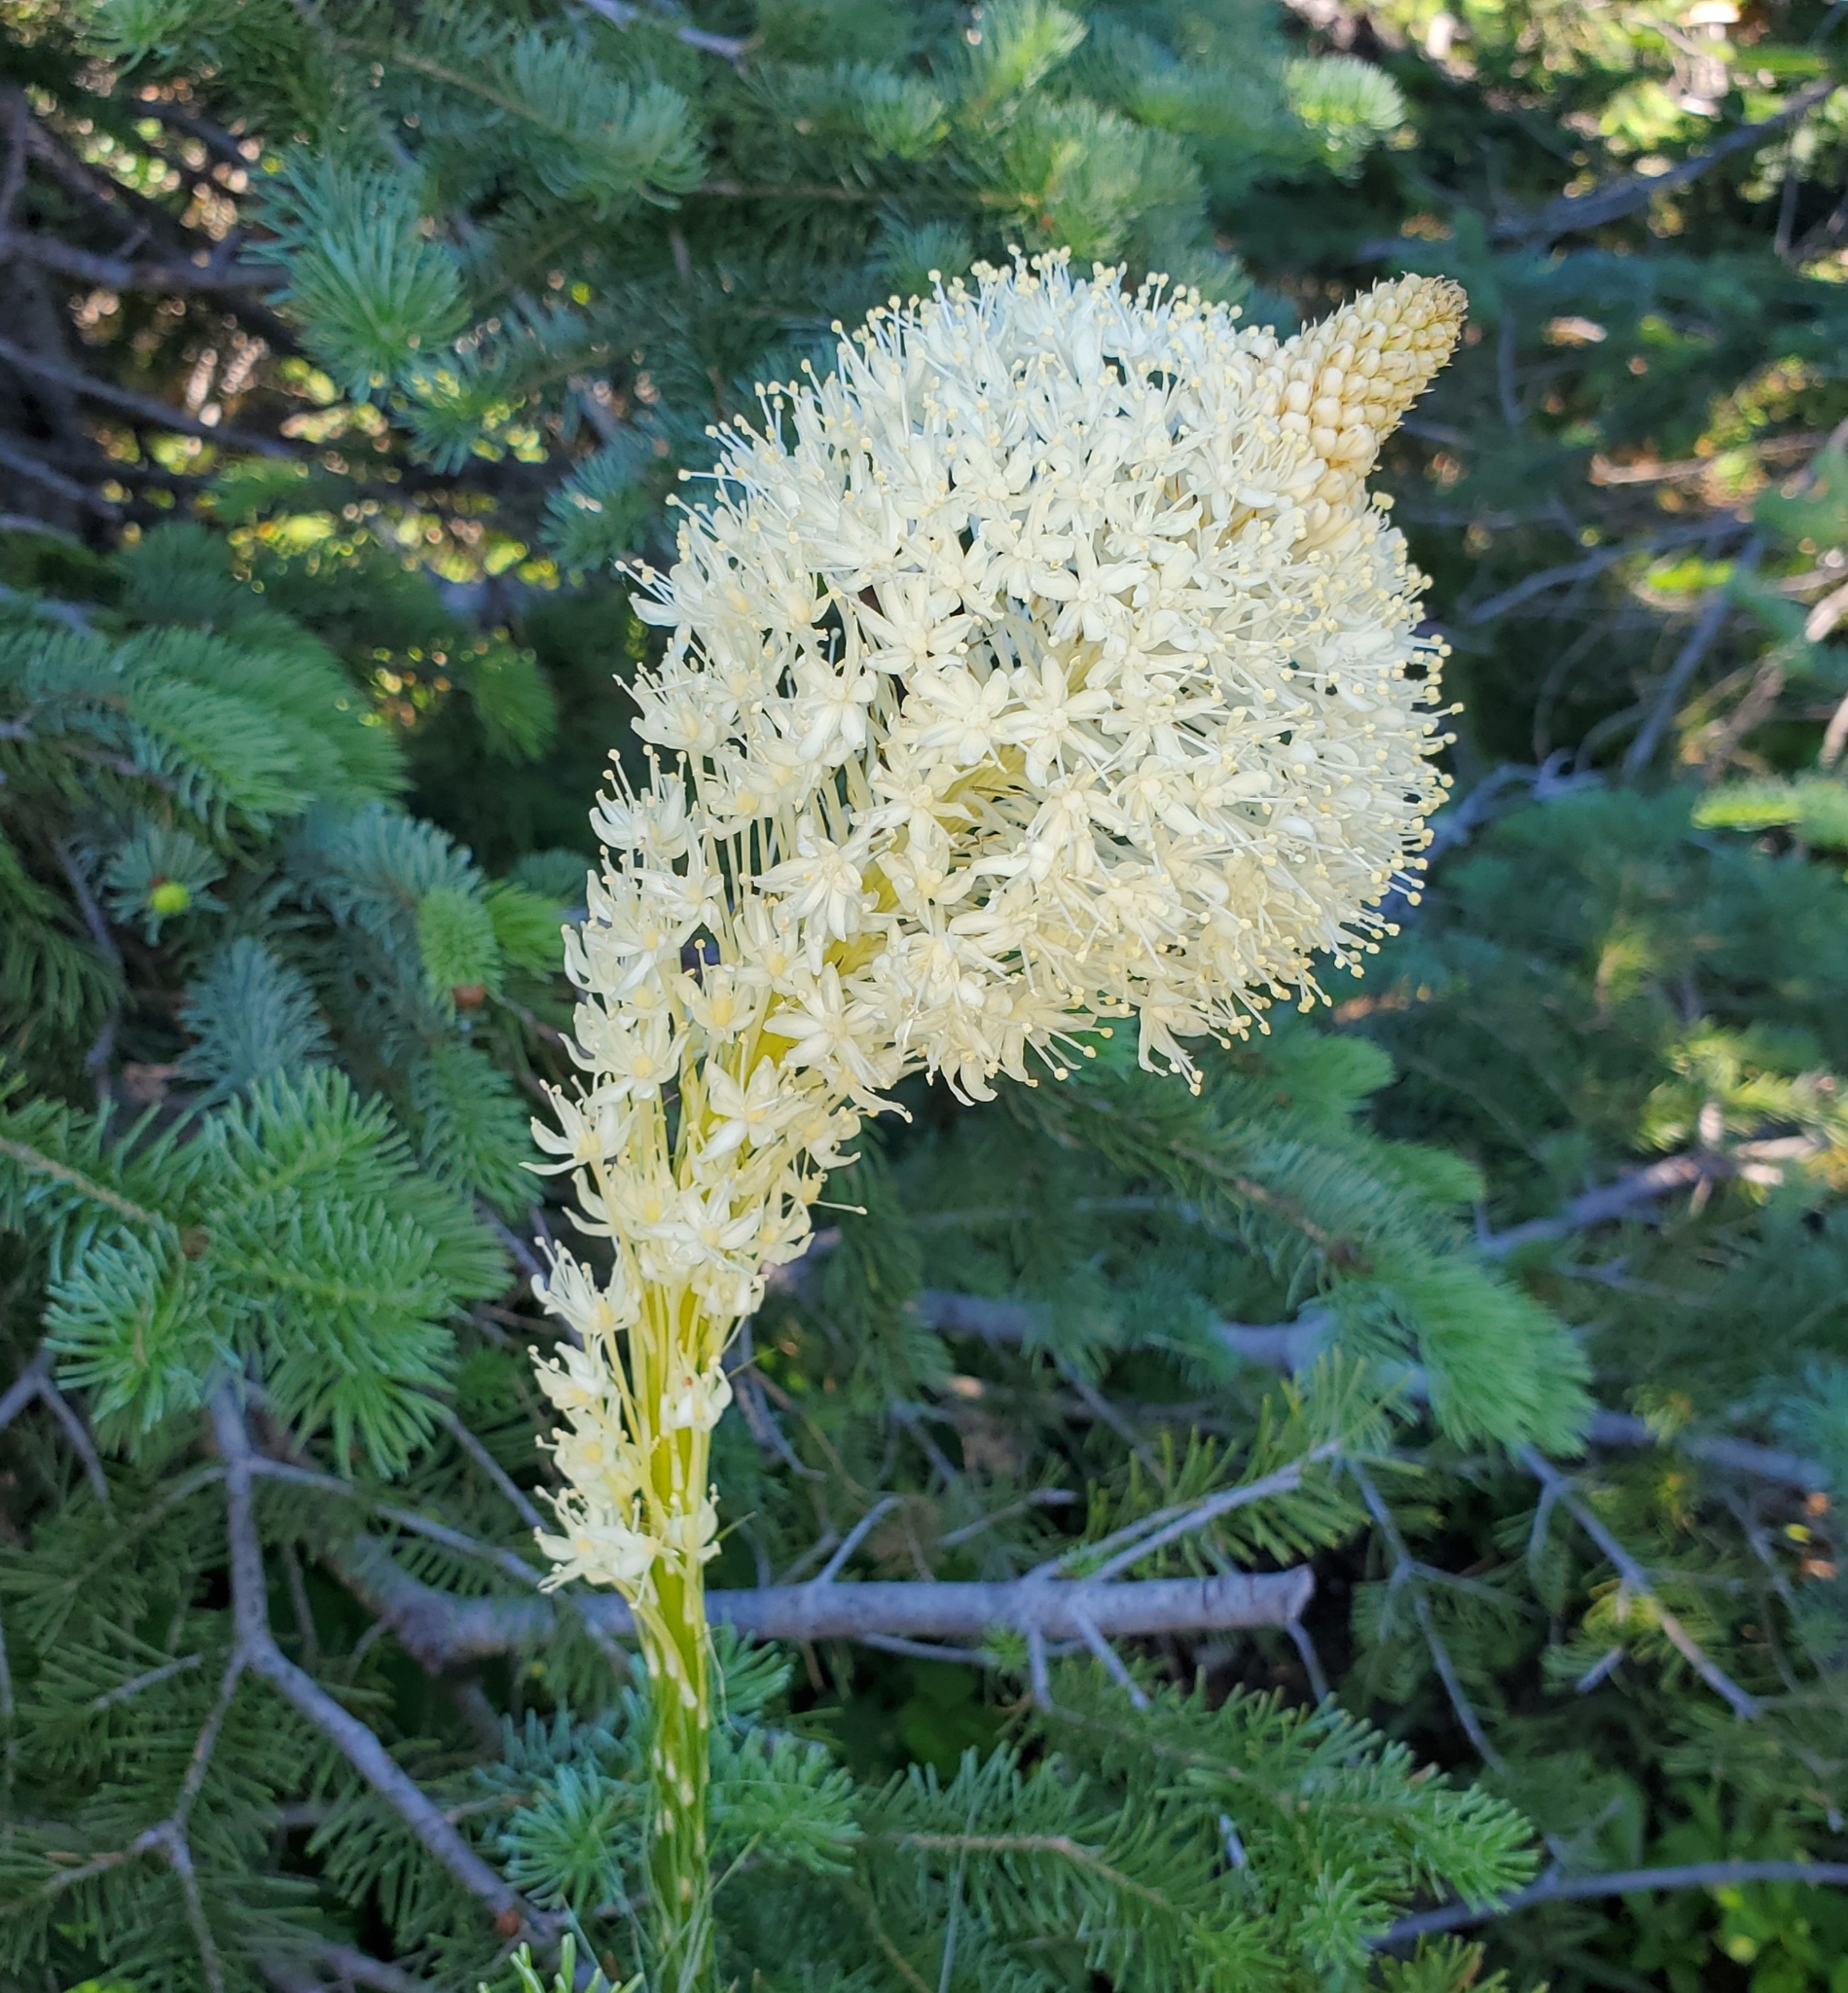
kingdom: Plantae
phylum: Tracheophyta
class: Liliopsida
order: Liliales
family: Melanthiaceae
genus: Xerophyllum
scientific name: Xerophyllum tenax
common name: Bear-grass
